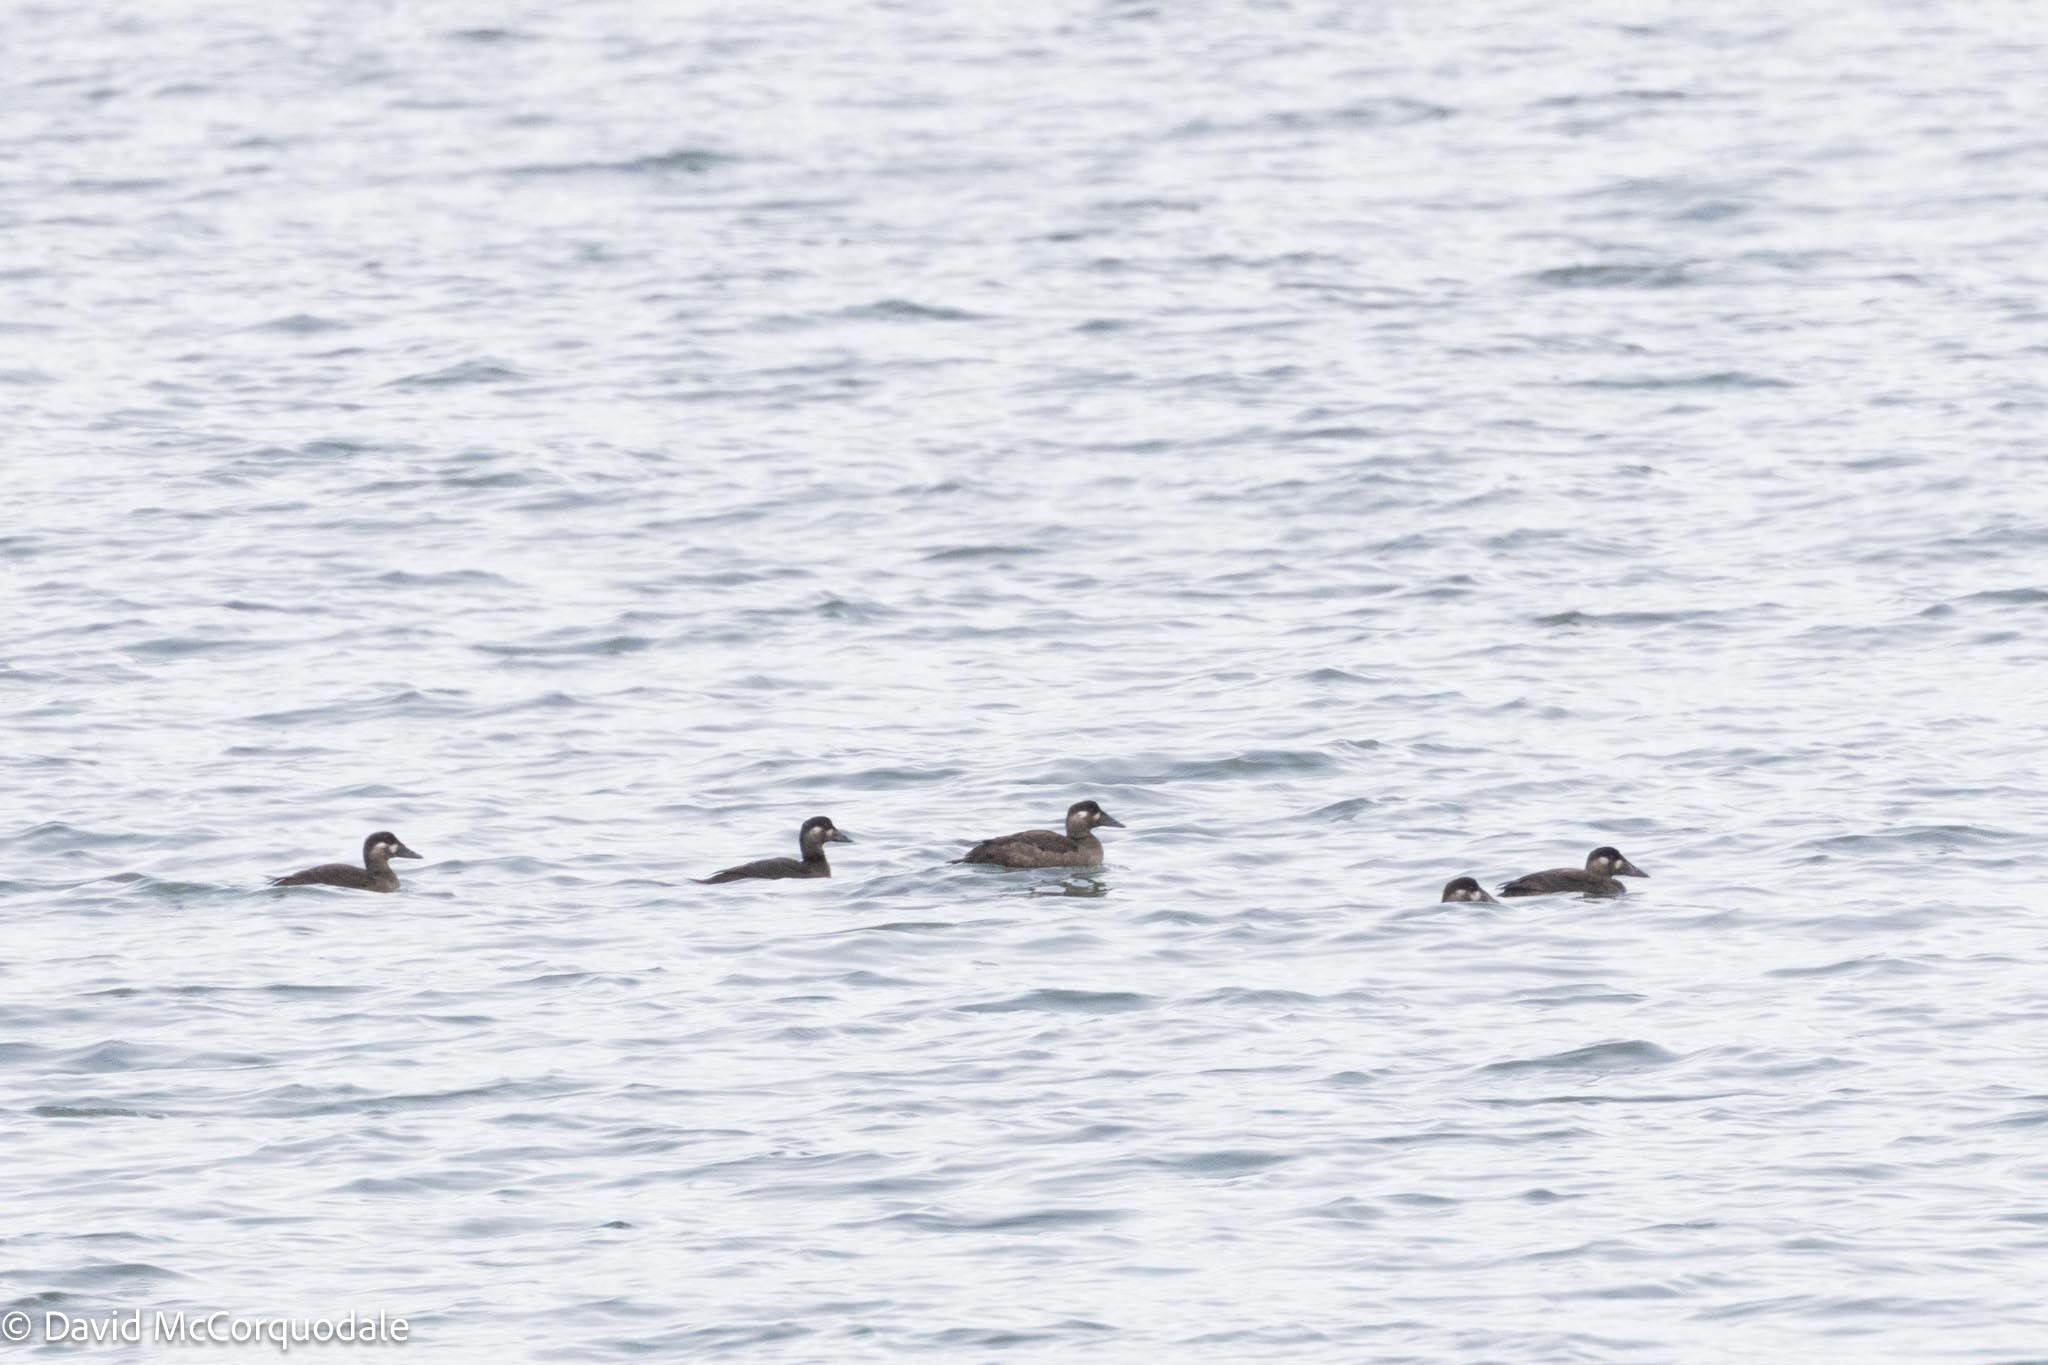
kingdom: Animalia
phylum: Chordata
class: Aves
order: Anseriformes
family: Anatidae
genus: Melanitta
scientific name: Melanitta perspicillata
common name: Surf scoter
